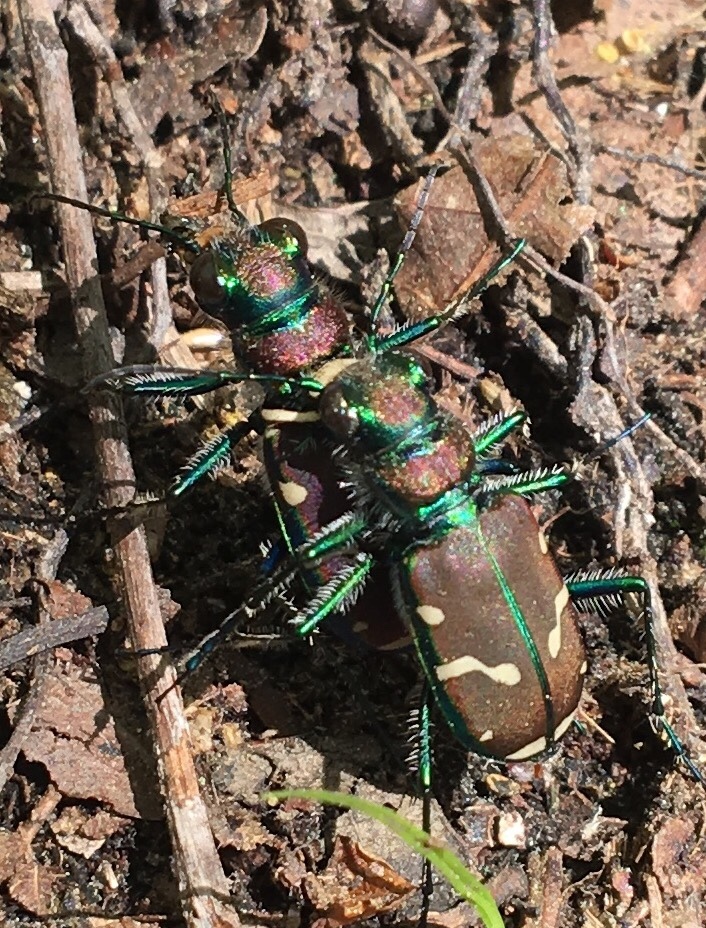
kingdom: Animalia
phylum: Arthropoda
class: Insecta
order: Coleoptera
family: Carabidae
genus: Cicindela
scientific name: Cicindela limbalis
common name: Common claybank tiger beetle
